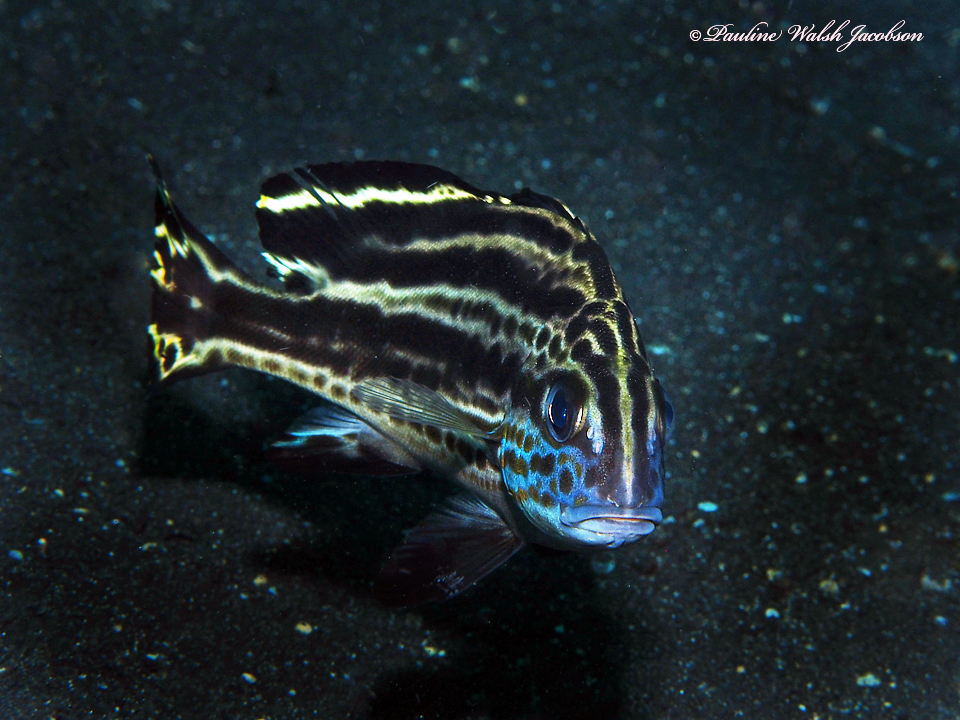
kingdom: Animalia
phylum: Chordata
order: Perciformes
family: Haemulidae
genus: Diagramma
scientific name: Diagramma pictum
